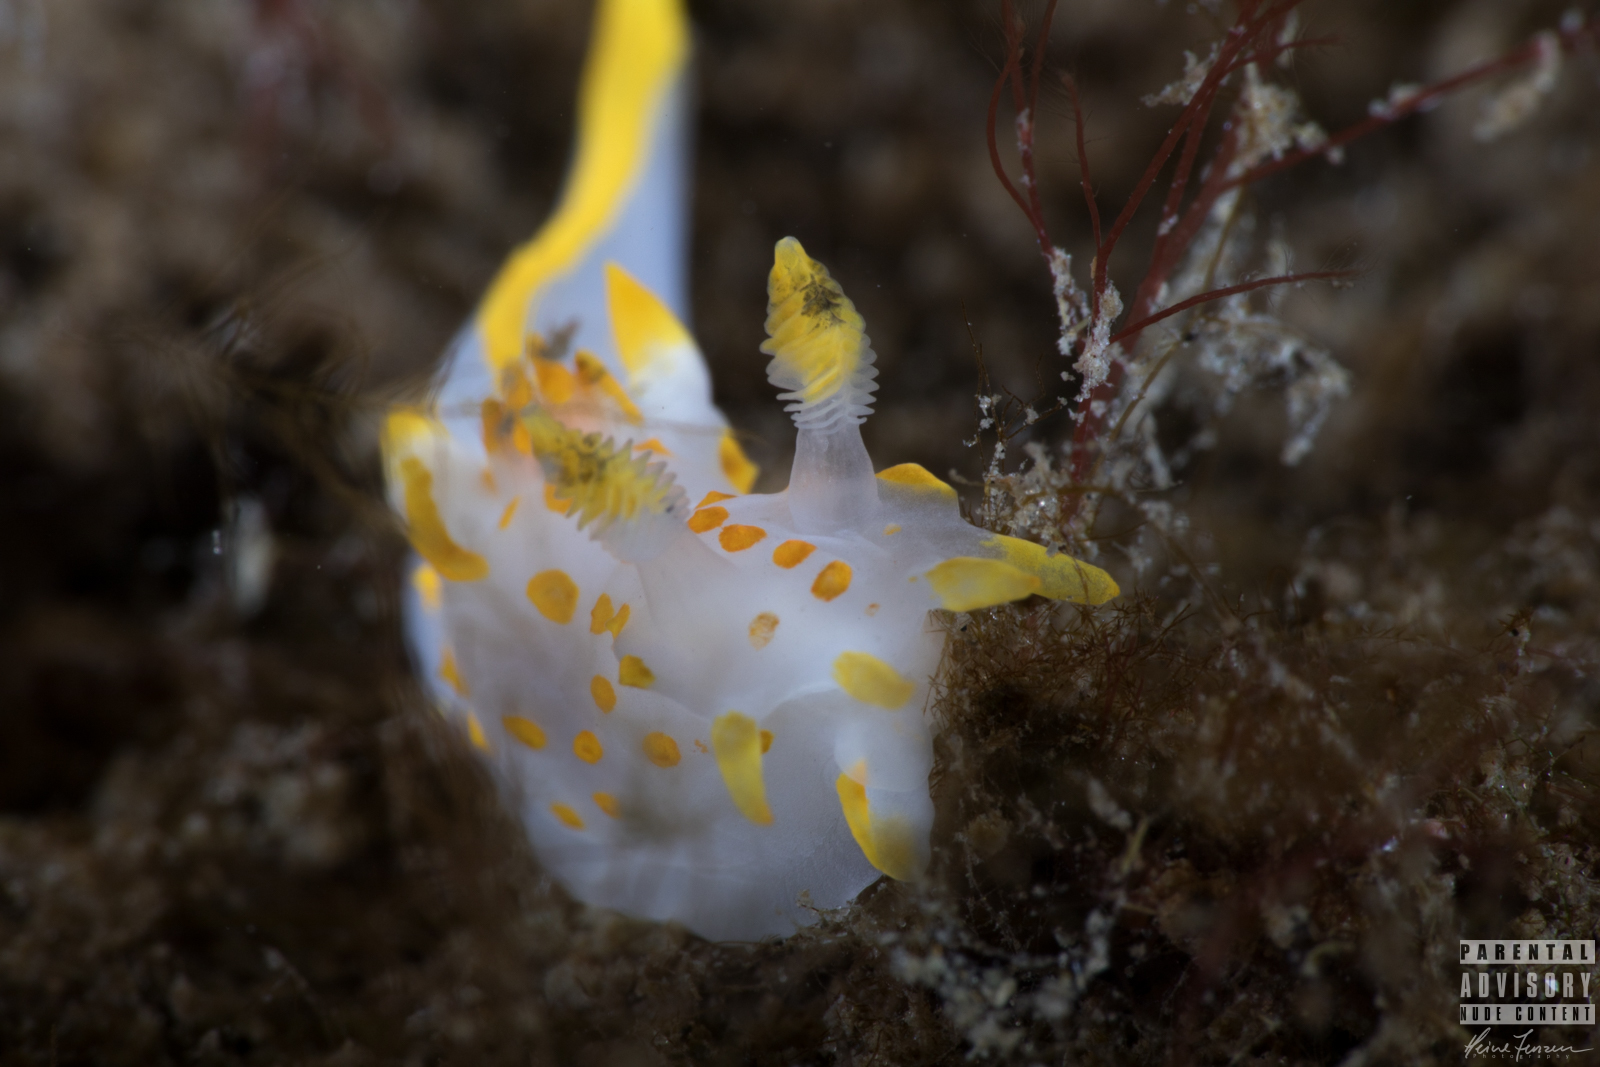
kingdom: Animalia
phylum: Mollusca
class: Gastropoda
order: Nudibranchia
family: Polyceridae
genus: Polycera
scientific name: Polycera quadrilineata
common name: Four-striped polycera
